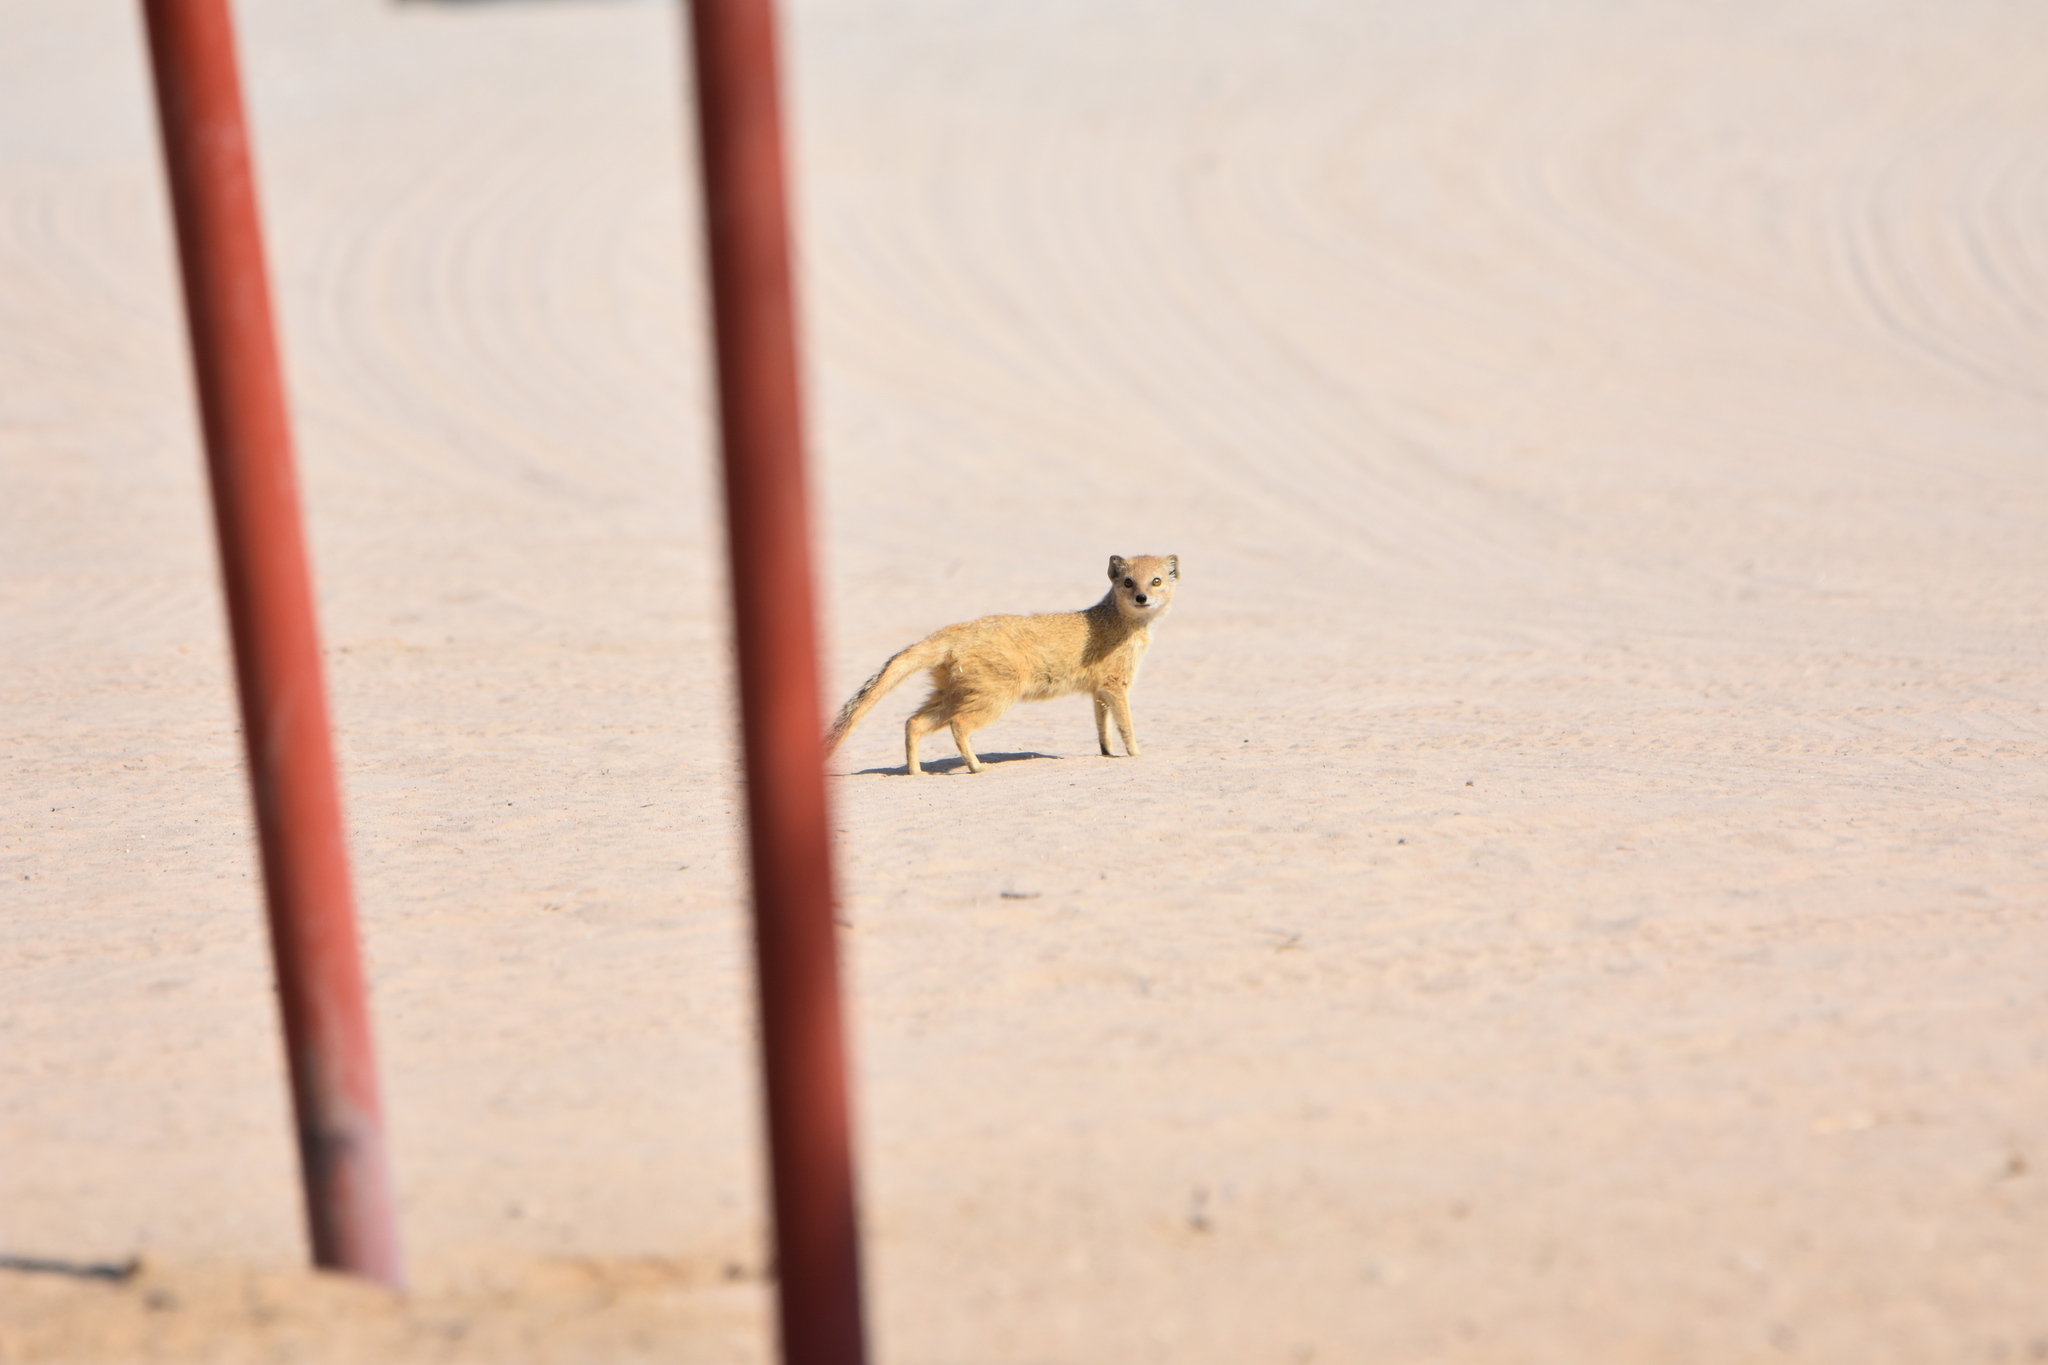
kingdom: Animalia
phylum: Chordata
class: Mammalia
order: Carnivora
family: Herpestidae
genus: Cynictis
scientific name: Cynictis penicillata
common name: Yellow mongoose
